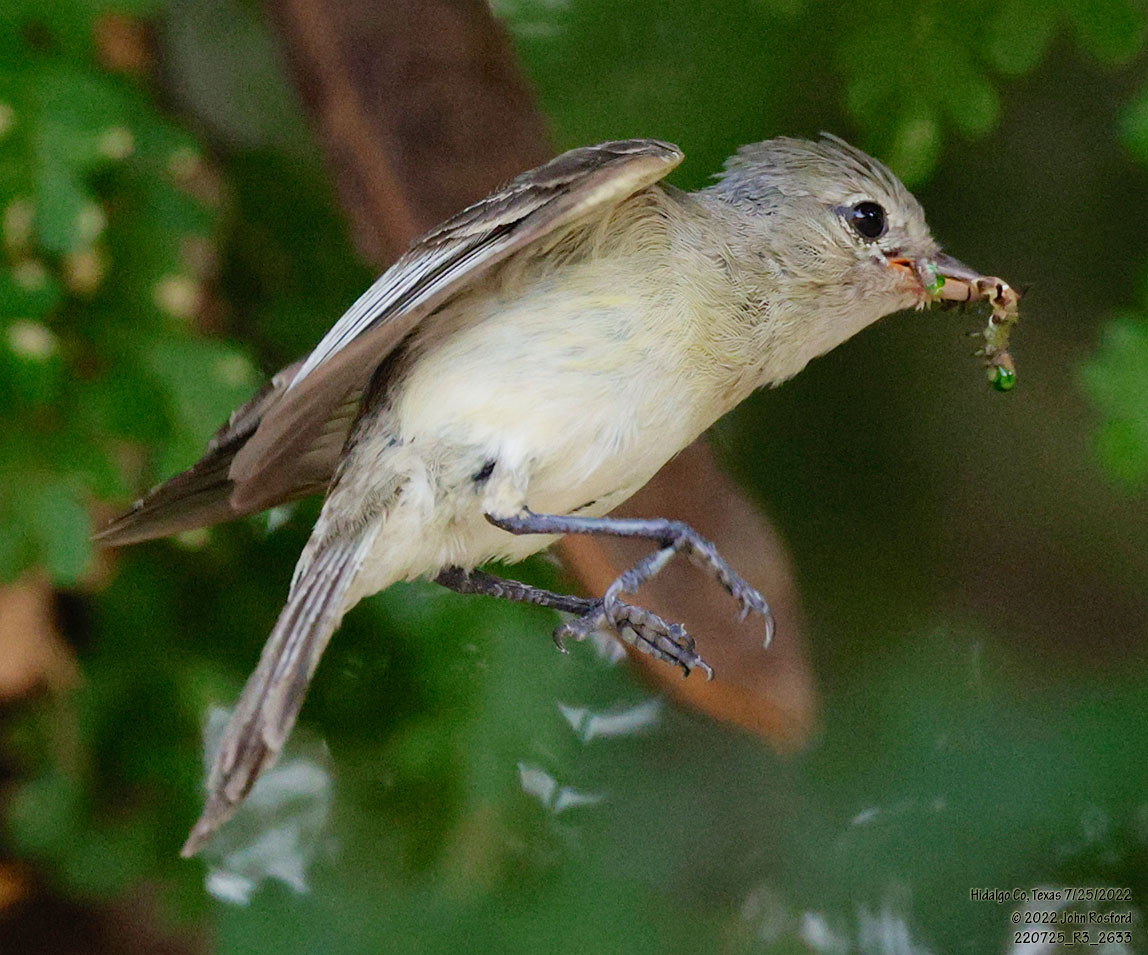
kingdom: Animalia
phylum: Chordata
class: Aves
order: Passeriformes
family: Tyrannidae
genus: Camptostoma
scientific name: Camptostoma imberbe
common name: Northern beardless-tyrannulet
